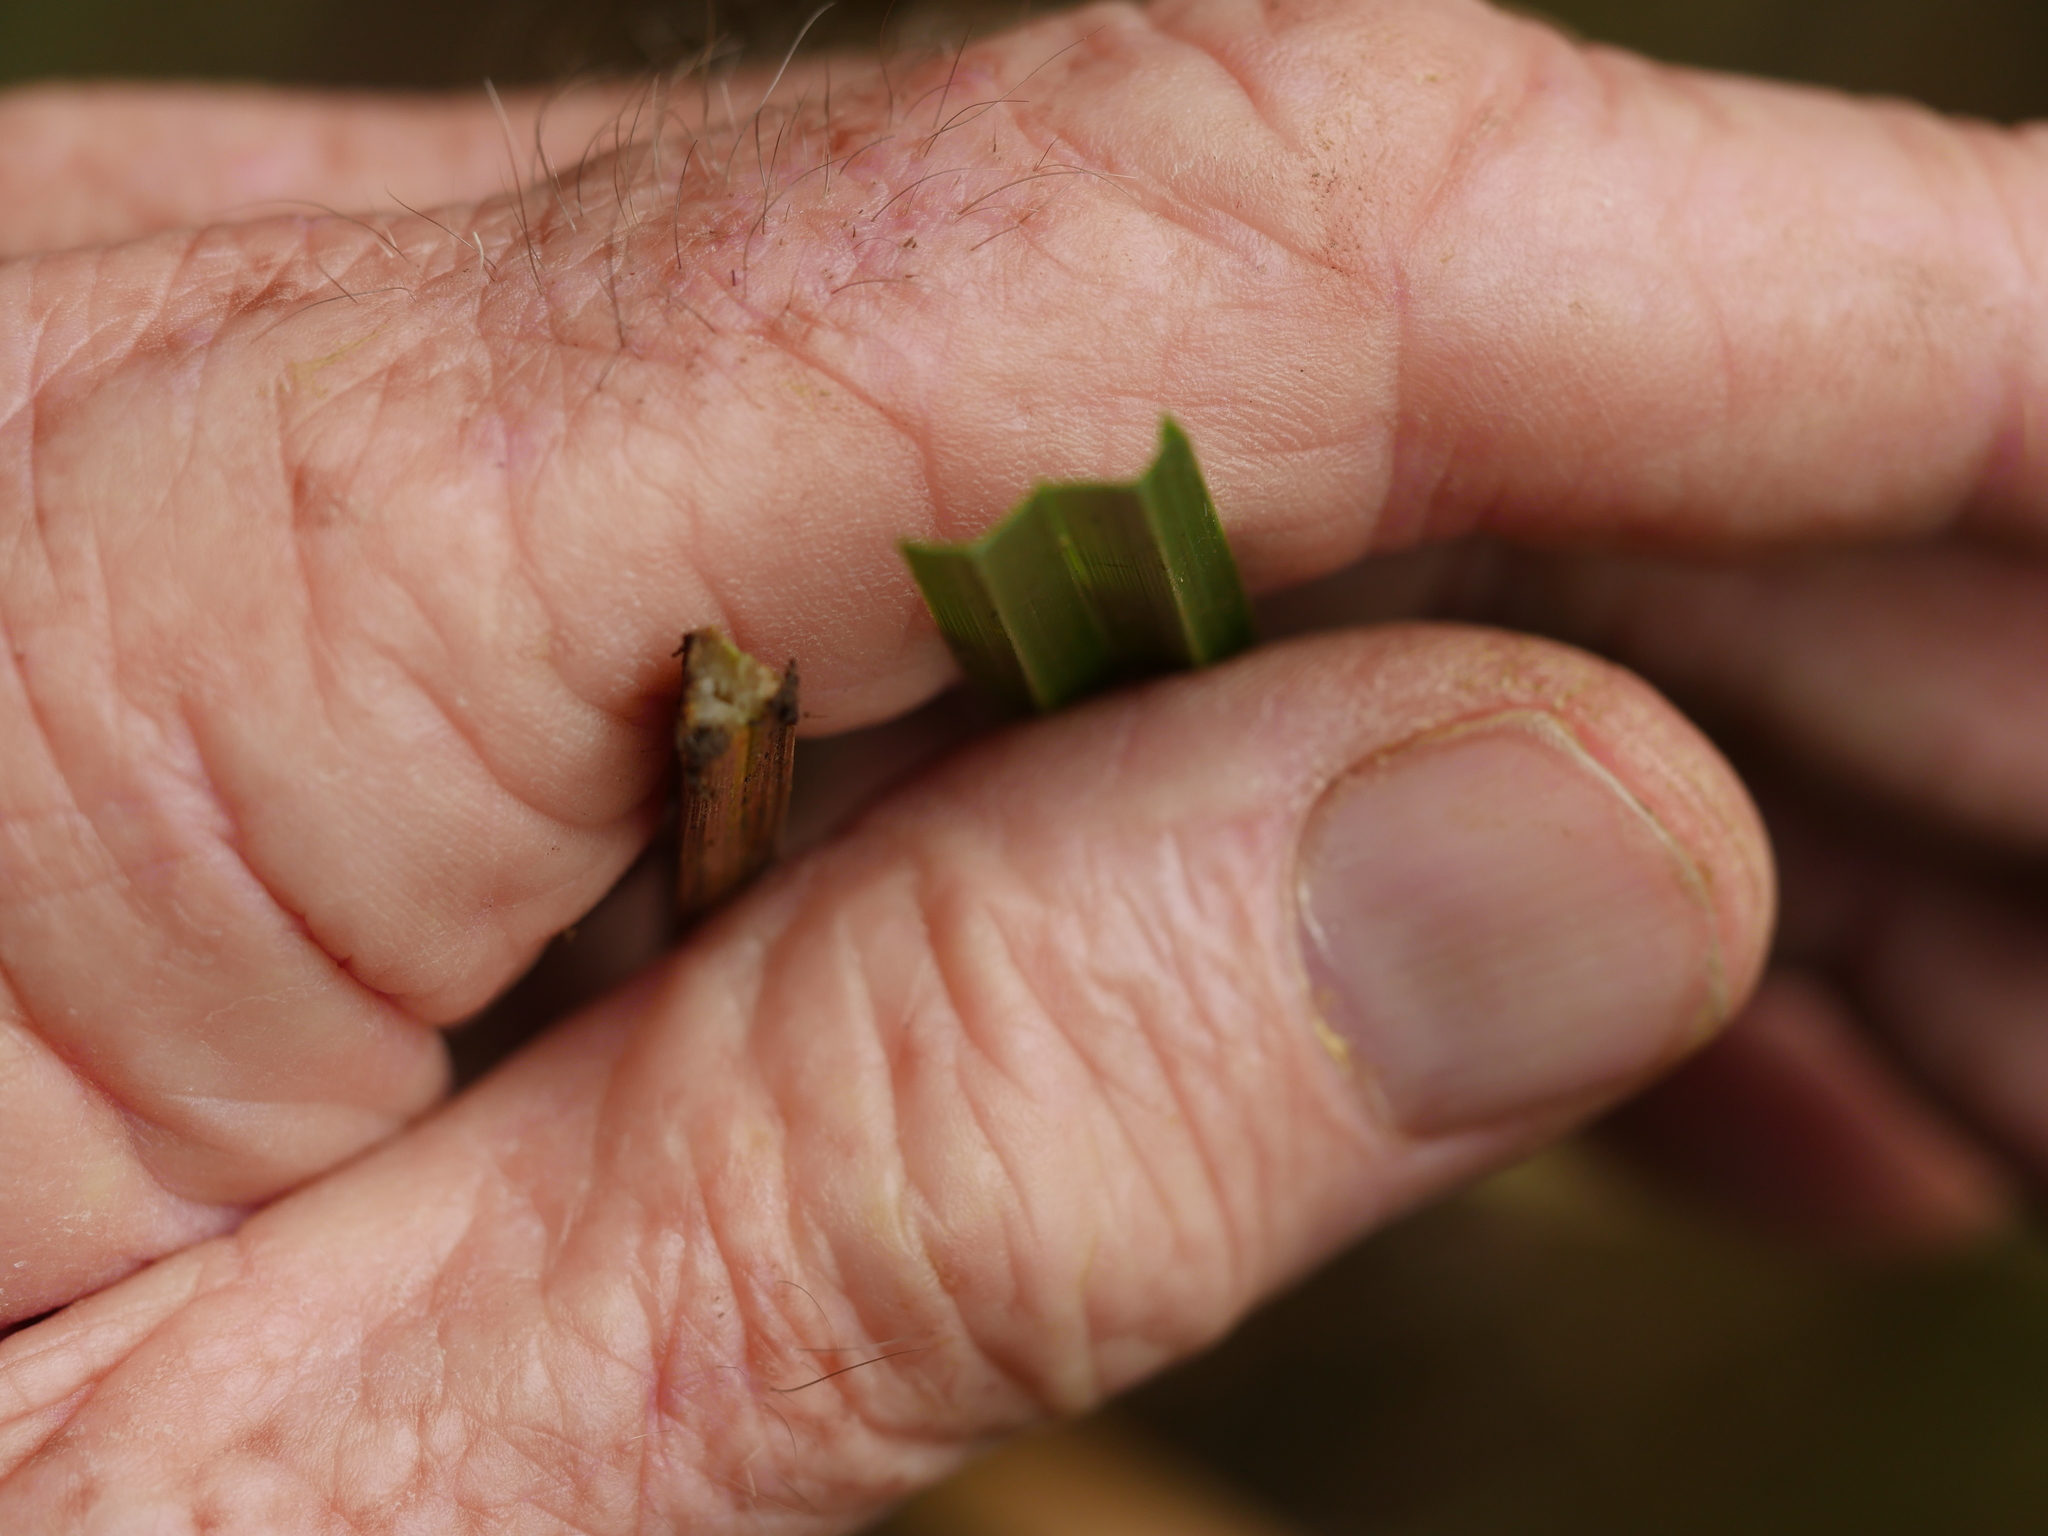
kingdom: Plantae
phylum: Tracheophyta
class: Liliopsida
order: Poales
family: Cyperaceae
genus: Carex
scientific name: Carex geminata
